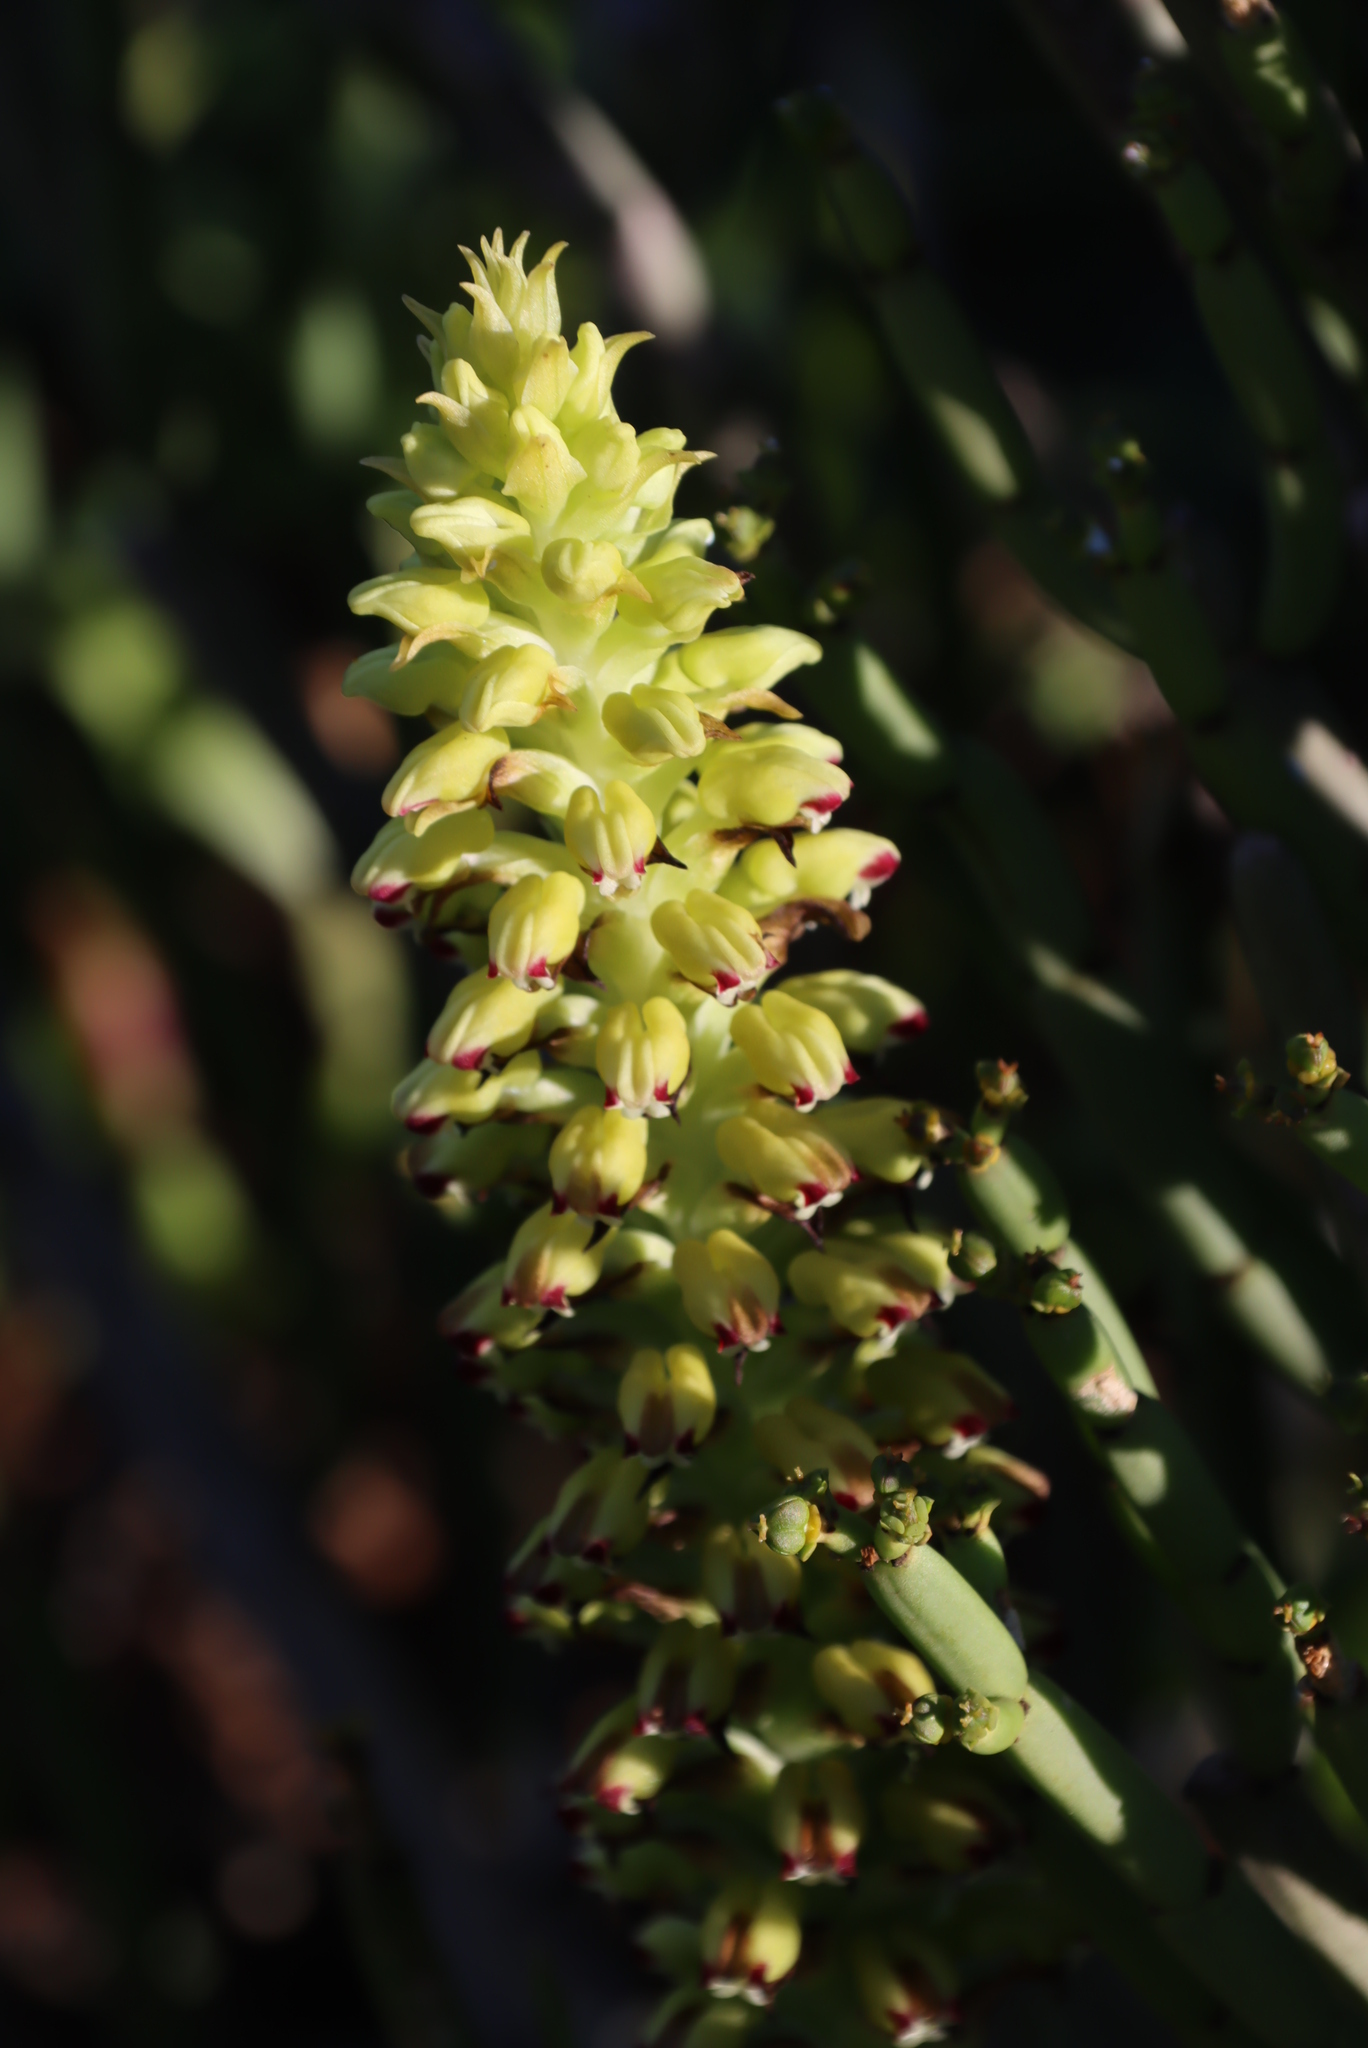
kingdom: Plantae
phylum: Tracheophyta
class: Liliopsida
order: Asparagales
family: Orchidaceae
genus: Corycium
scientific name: Corycium orobanchoides
